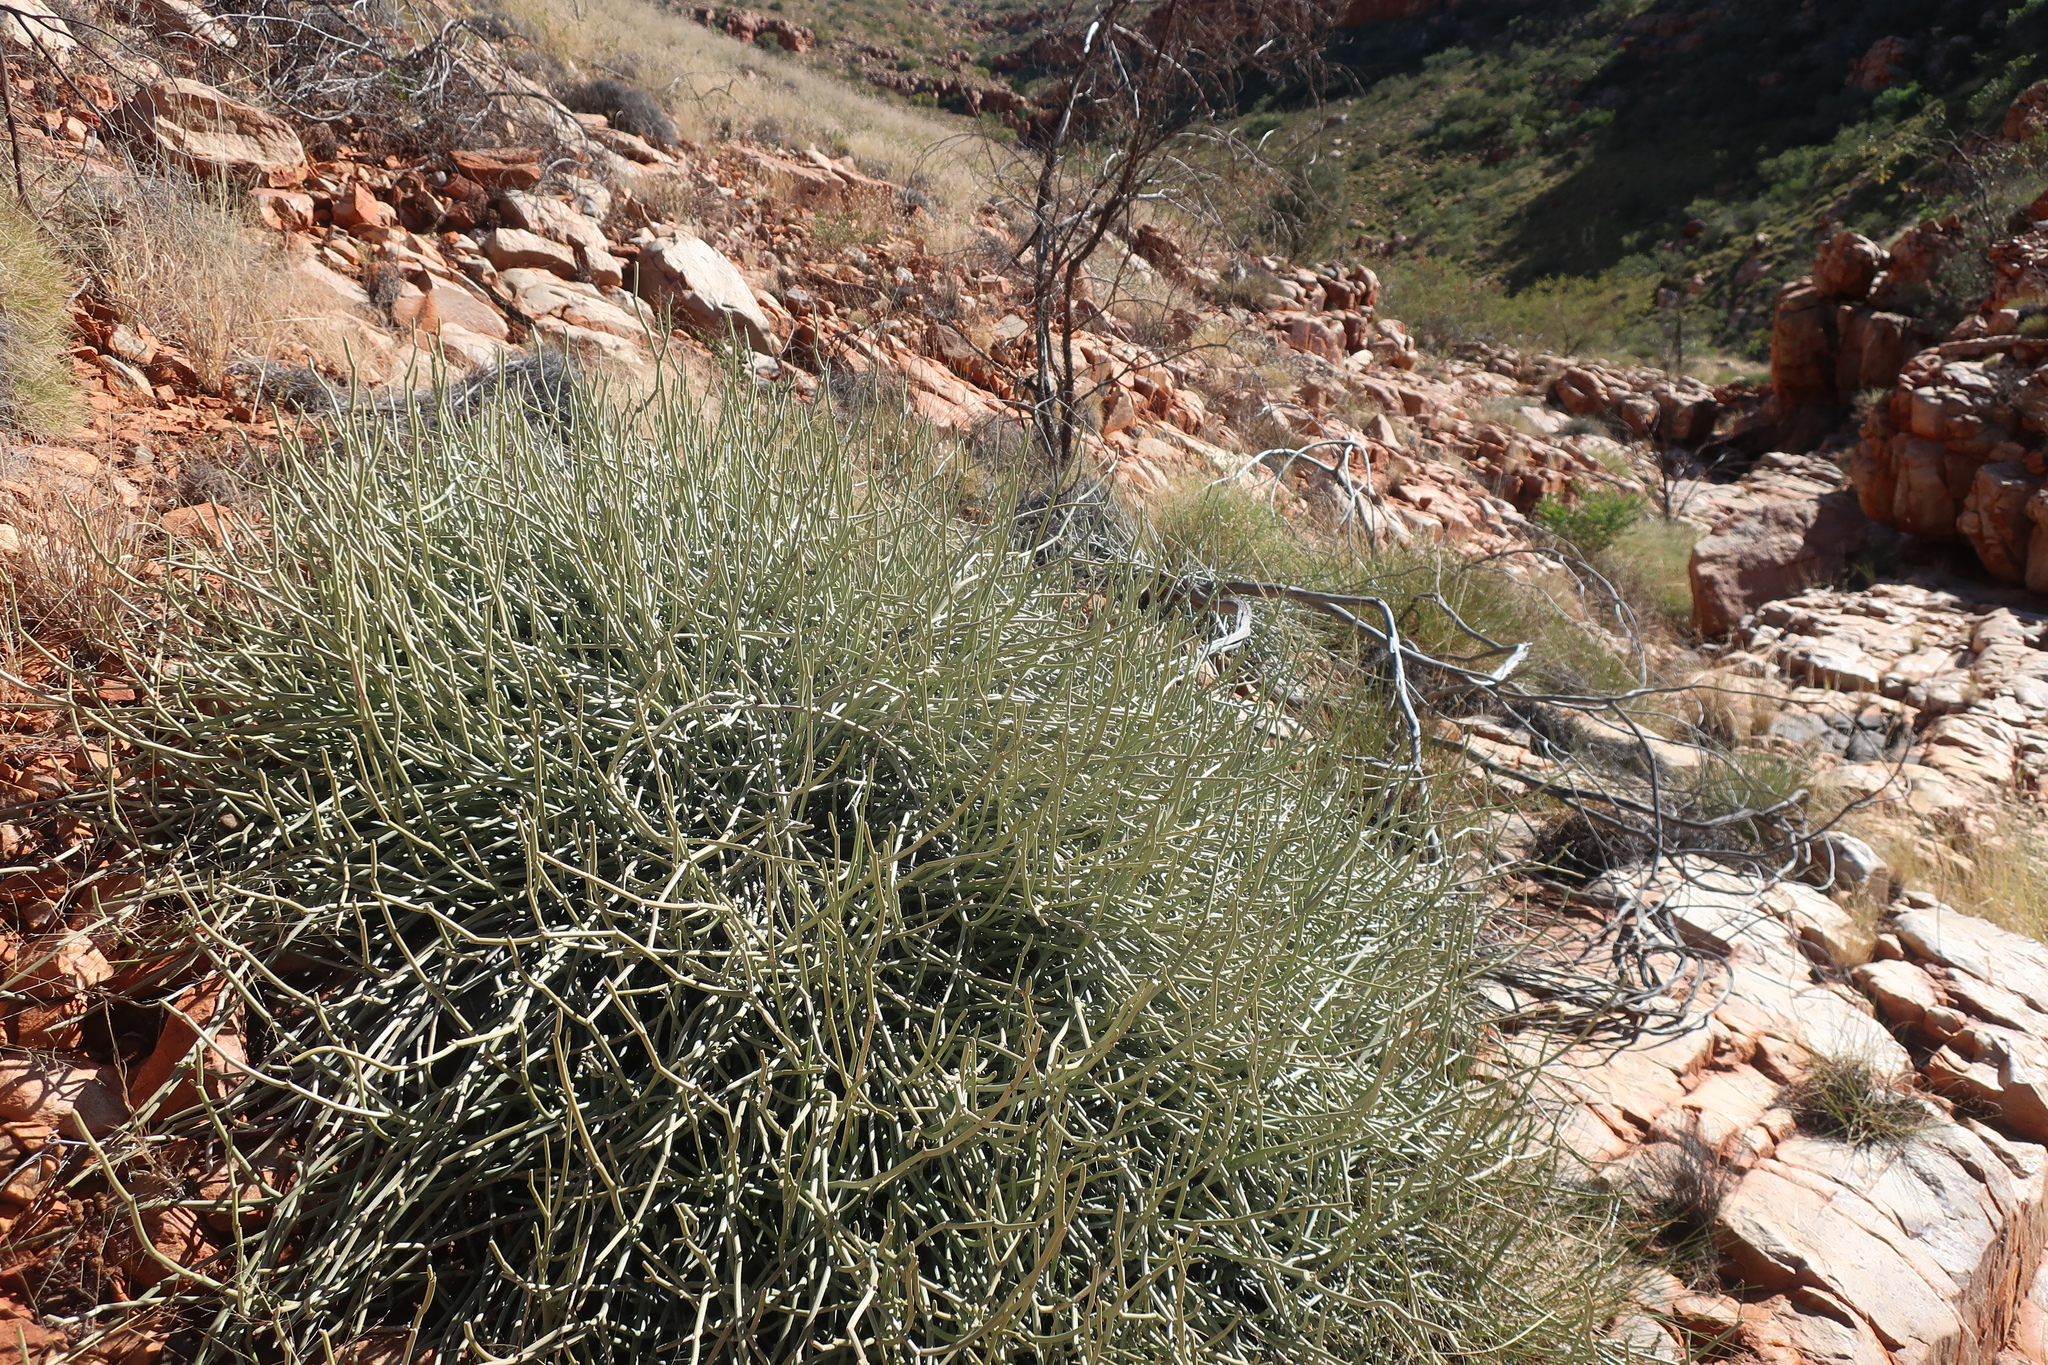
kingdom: Plantae
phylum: Tracheophyta
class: Magnoliopsida
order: Gentianales
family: Apocynaceae
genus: Cynanchum
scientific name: Cynanchum viminale
